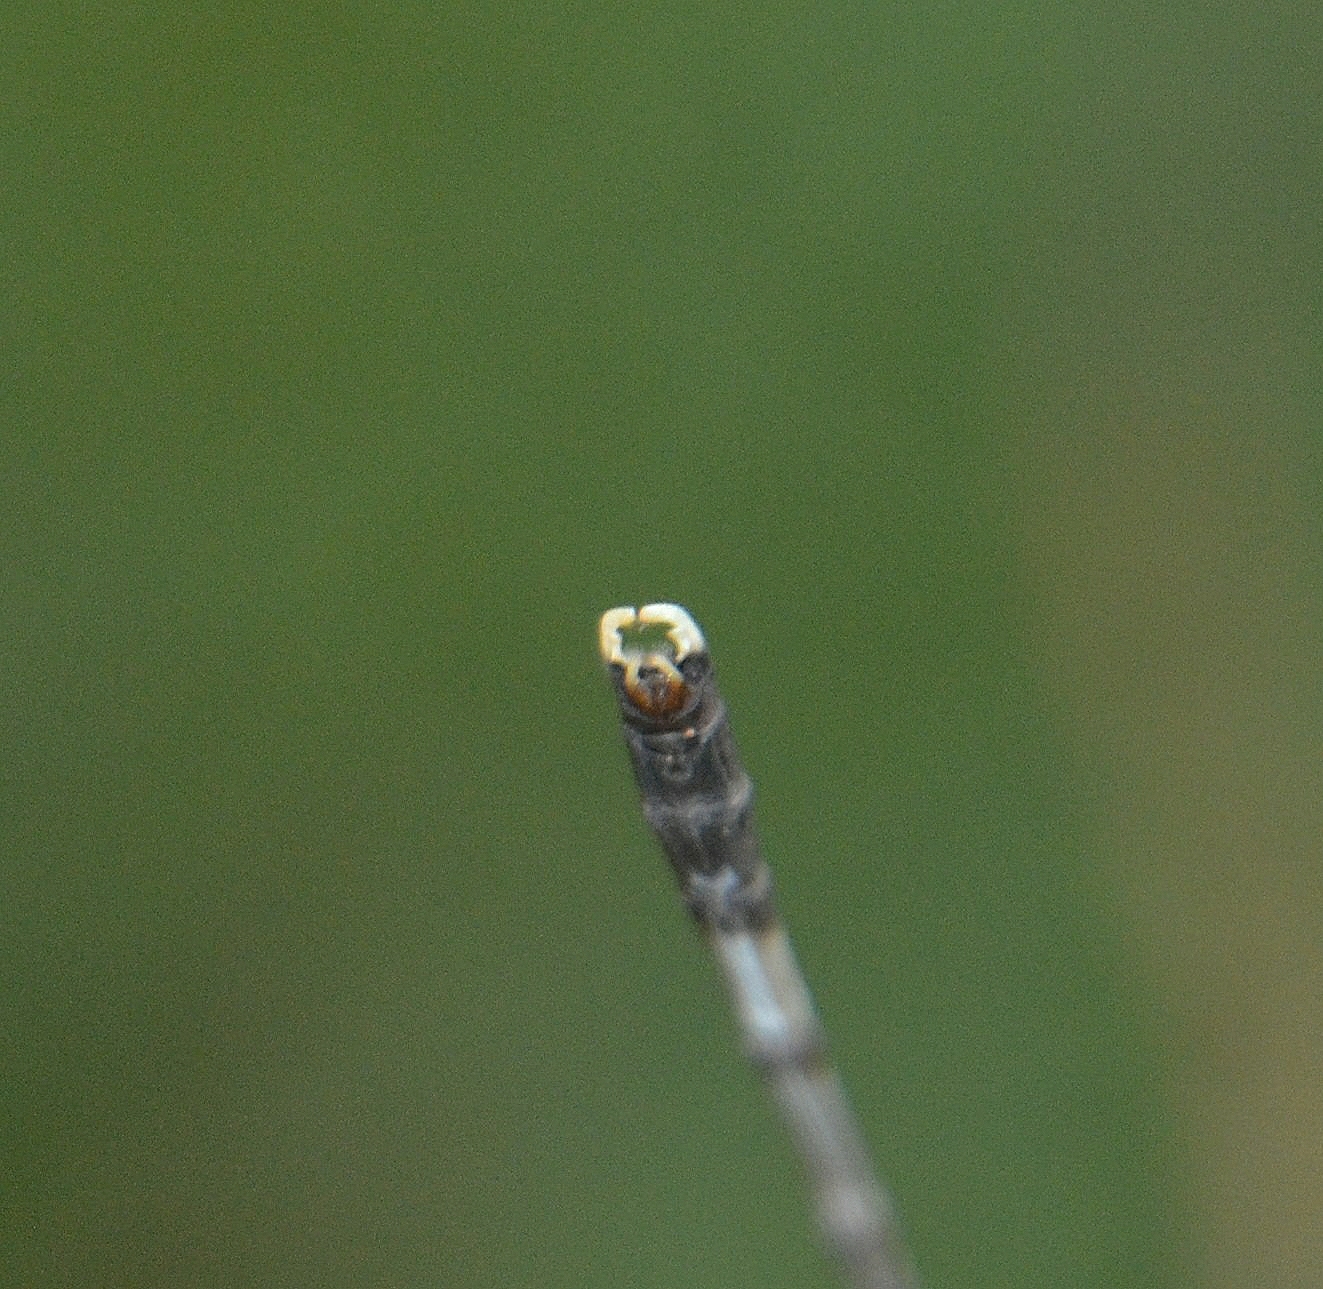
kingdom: Animalia
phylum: Arthropoda
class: Insecta
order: Odonata
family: Lestidae
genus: Platylestes
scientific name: Platylestes platystylus
